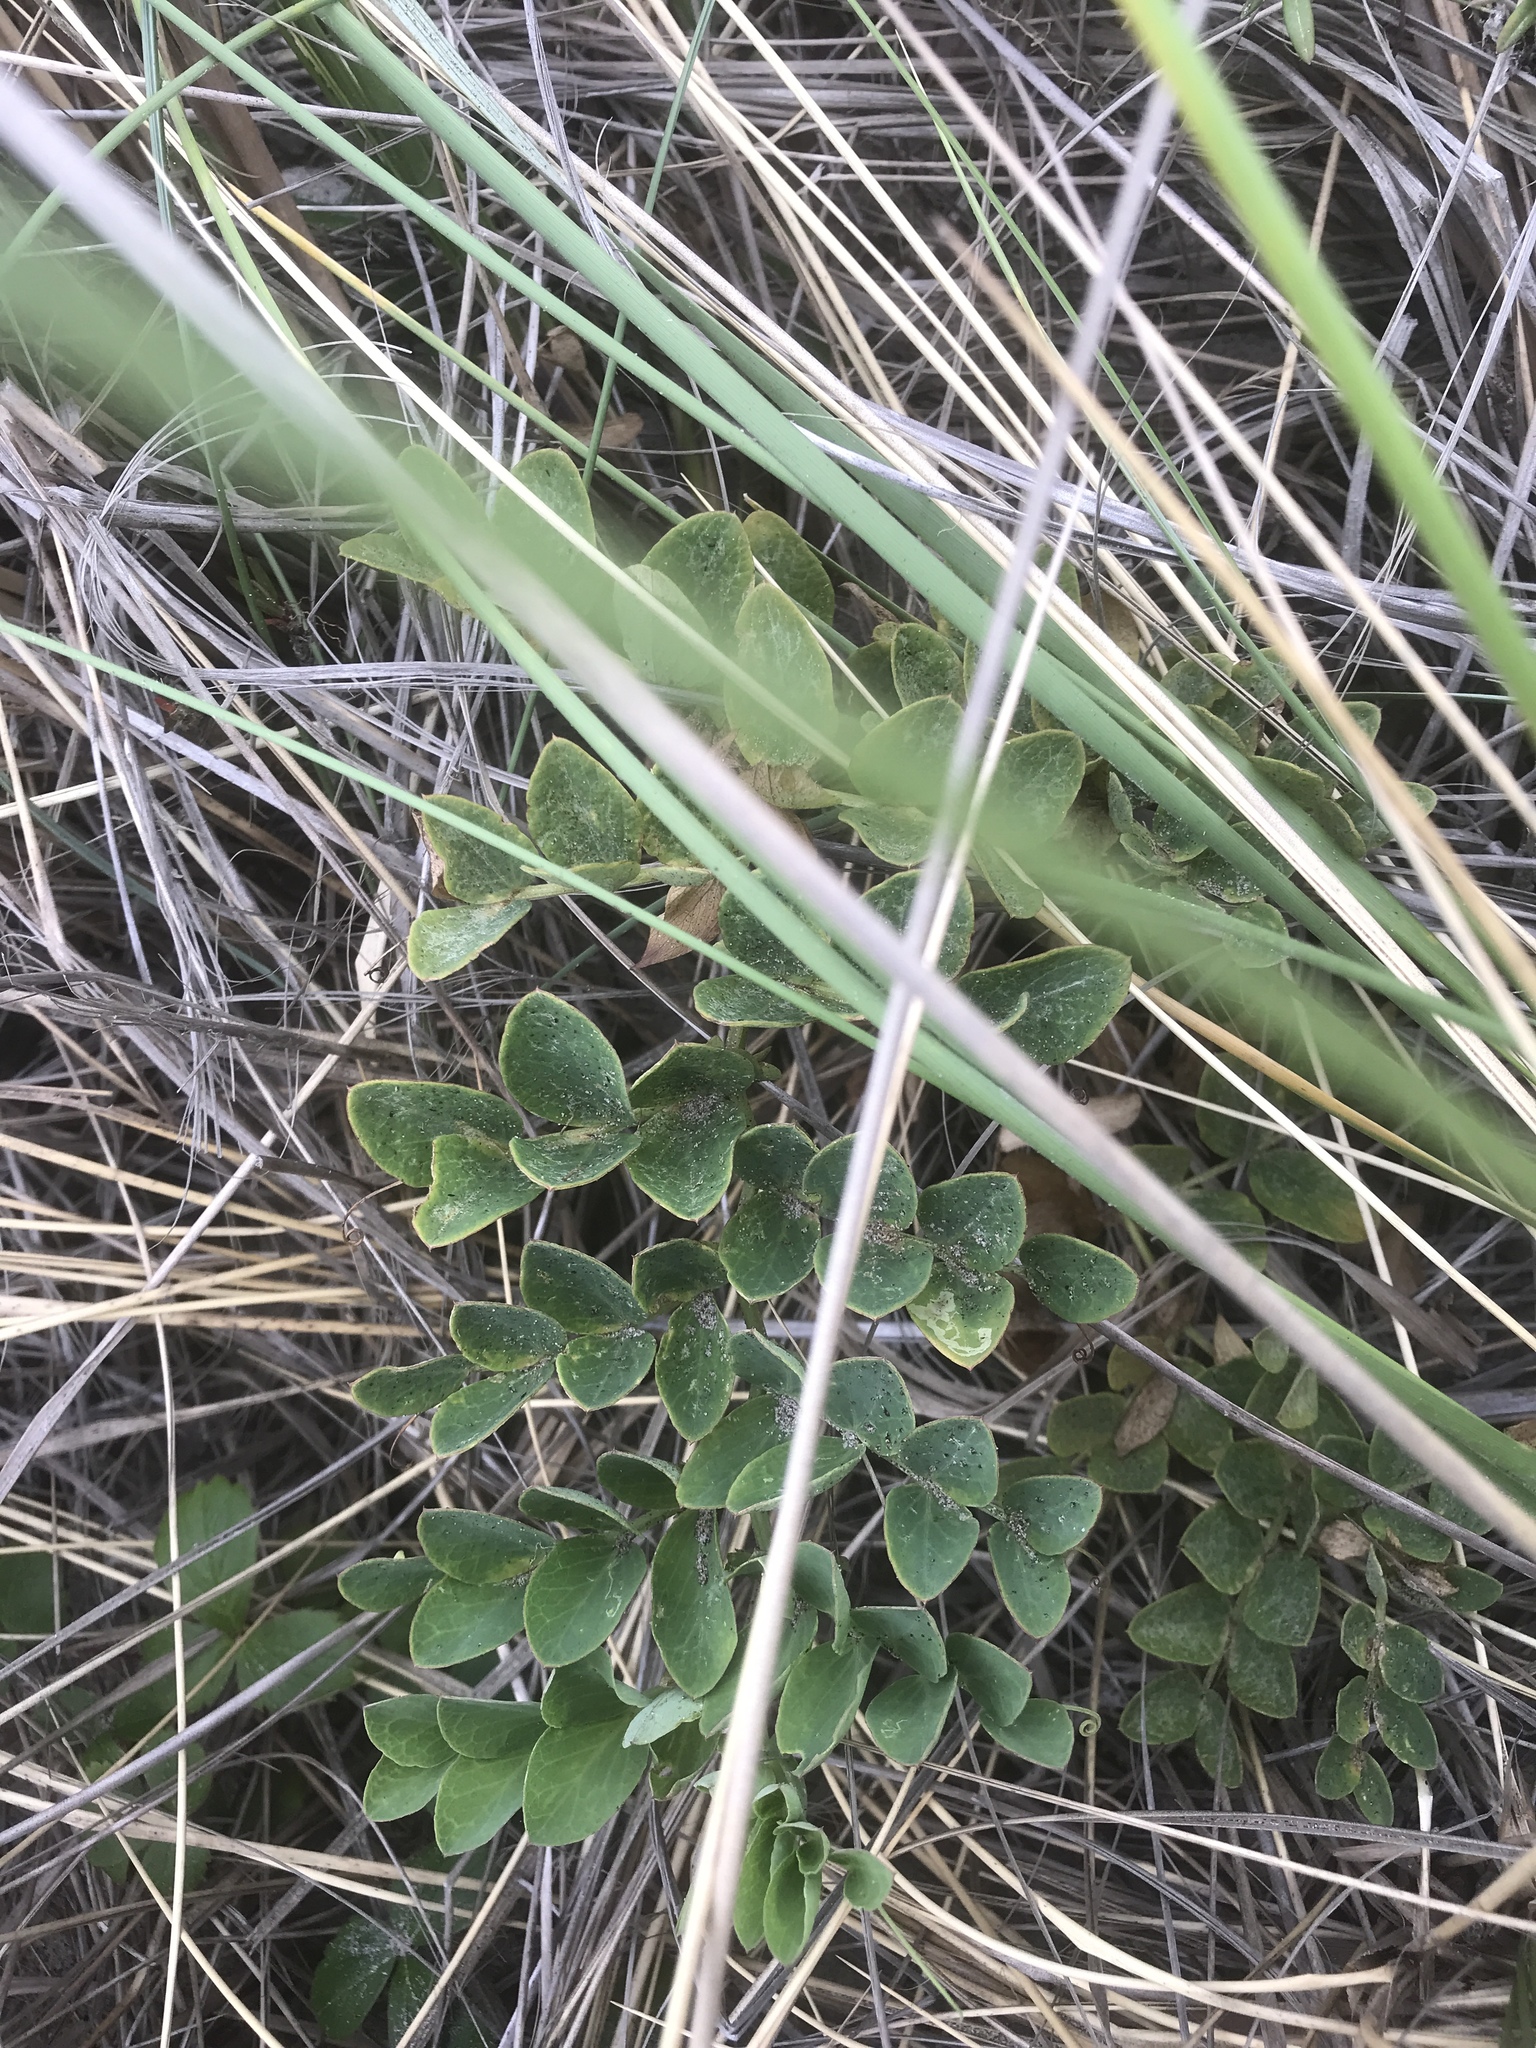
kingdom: Plantae
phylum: Tracheophyta
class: Magnoliopsida
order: Fabales
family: Fabaceae
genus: Lathyrus
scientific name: Lathyrus japonicus
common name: Sea pea
